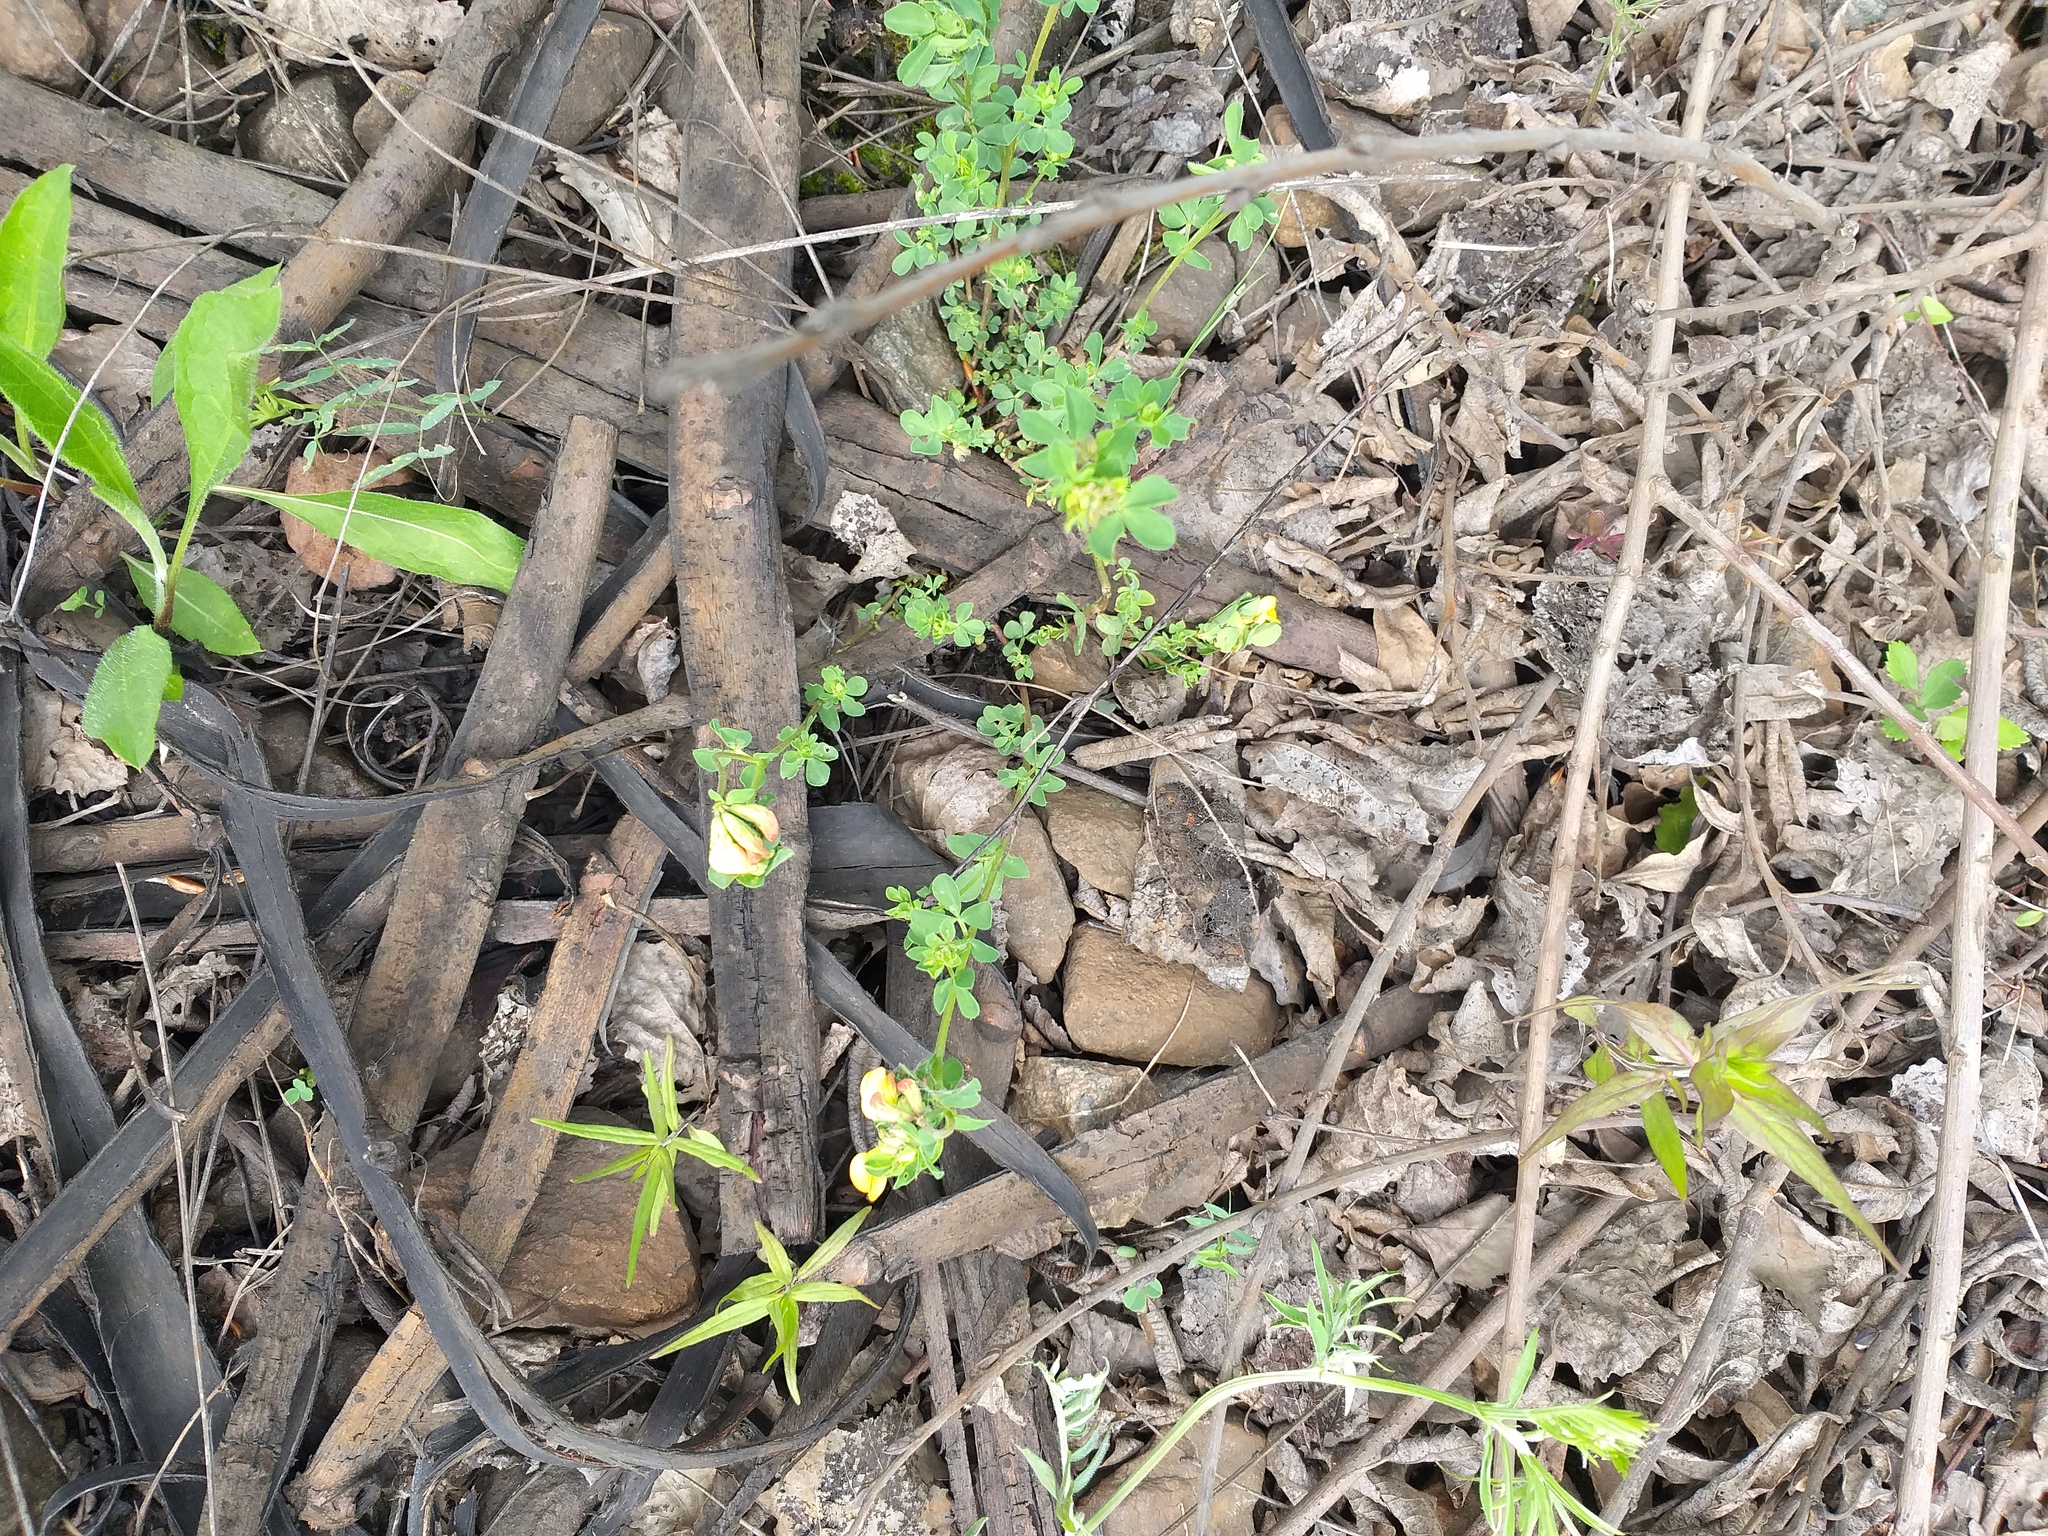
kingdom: Plantae
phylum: Tracheophyta
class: Magnoliopsida
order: Fabales
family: Fabaceae
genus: Lotus
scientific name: Lotus corniculatus
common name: Common bird's-foot-trefoil
